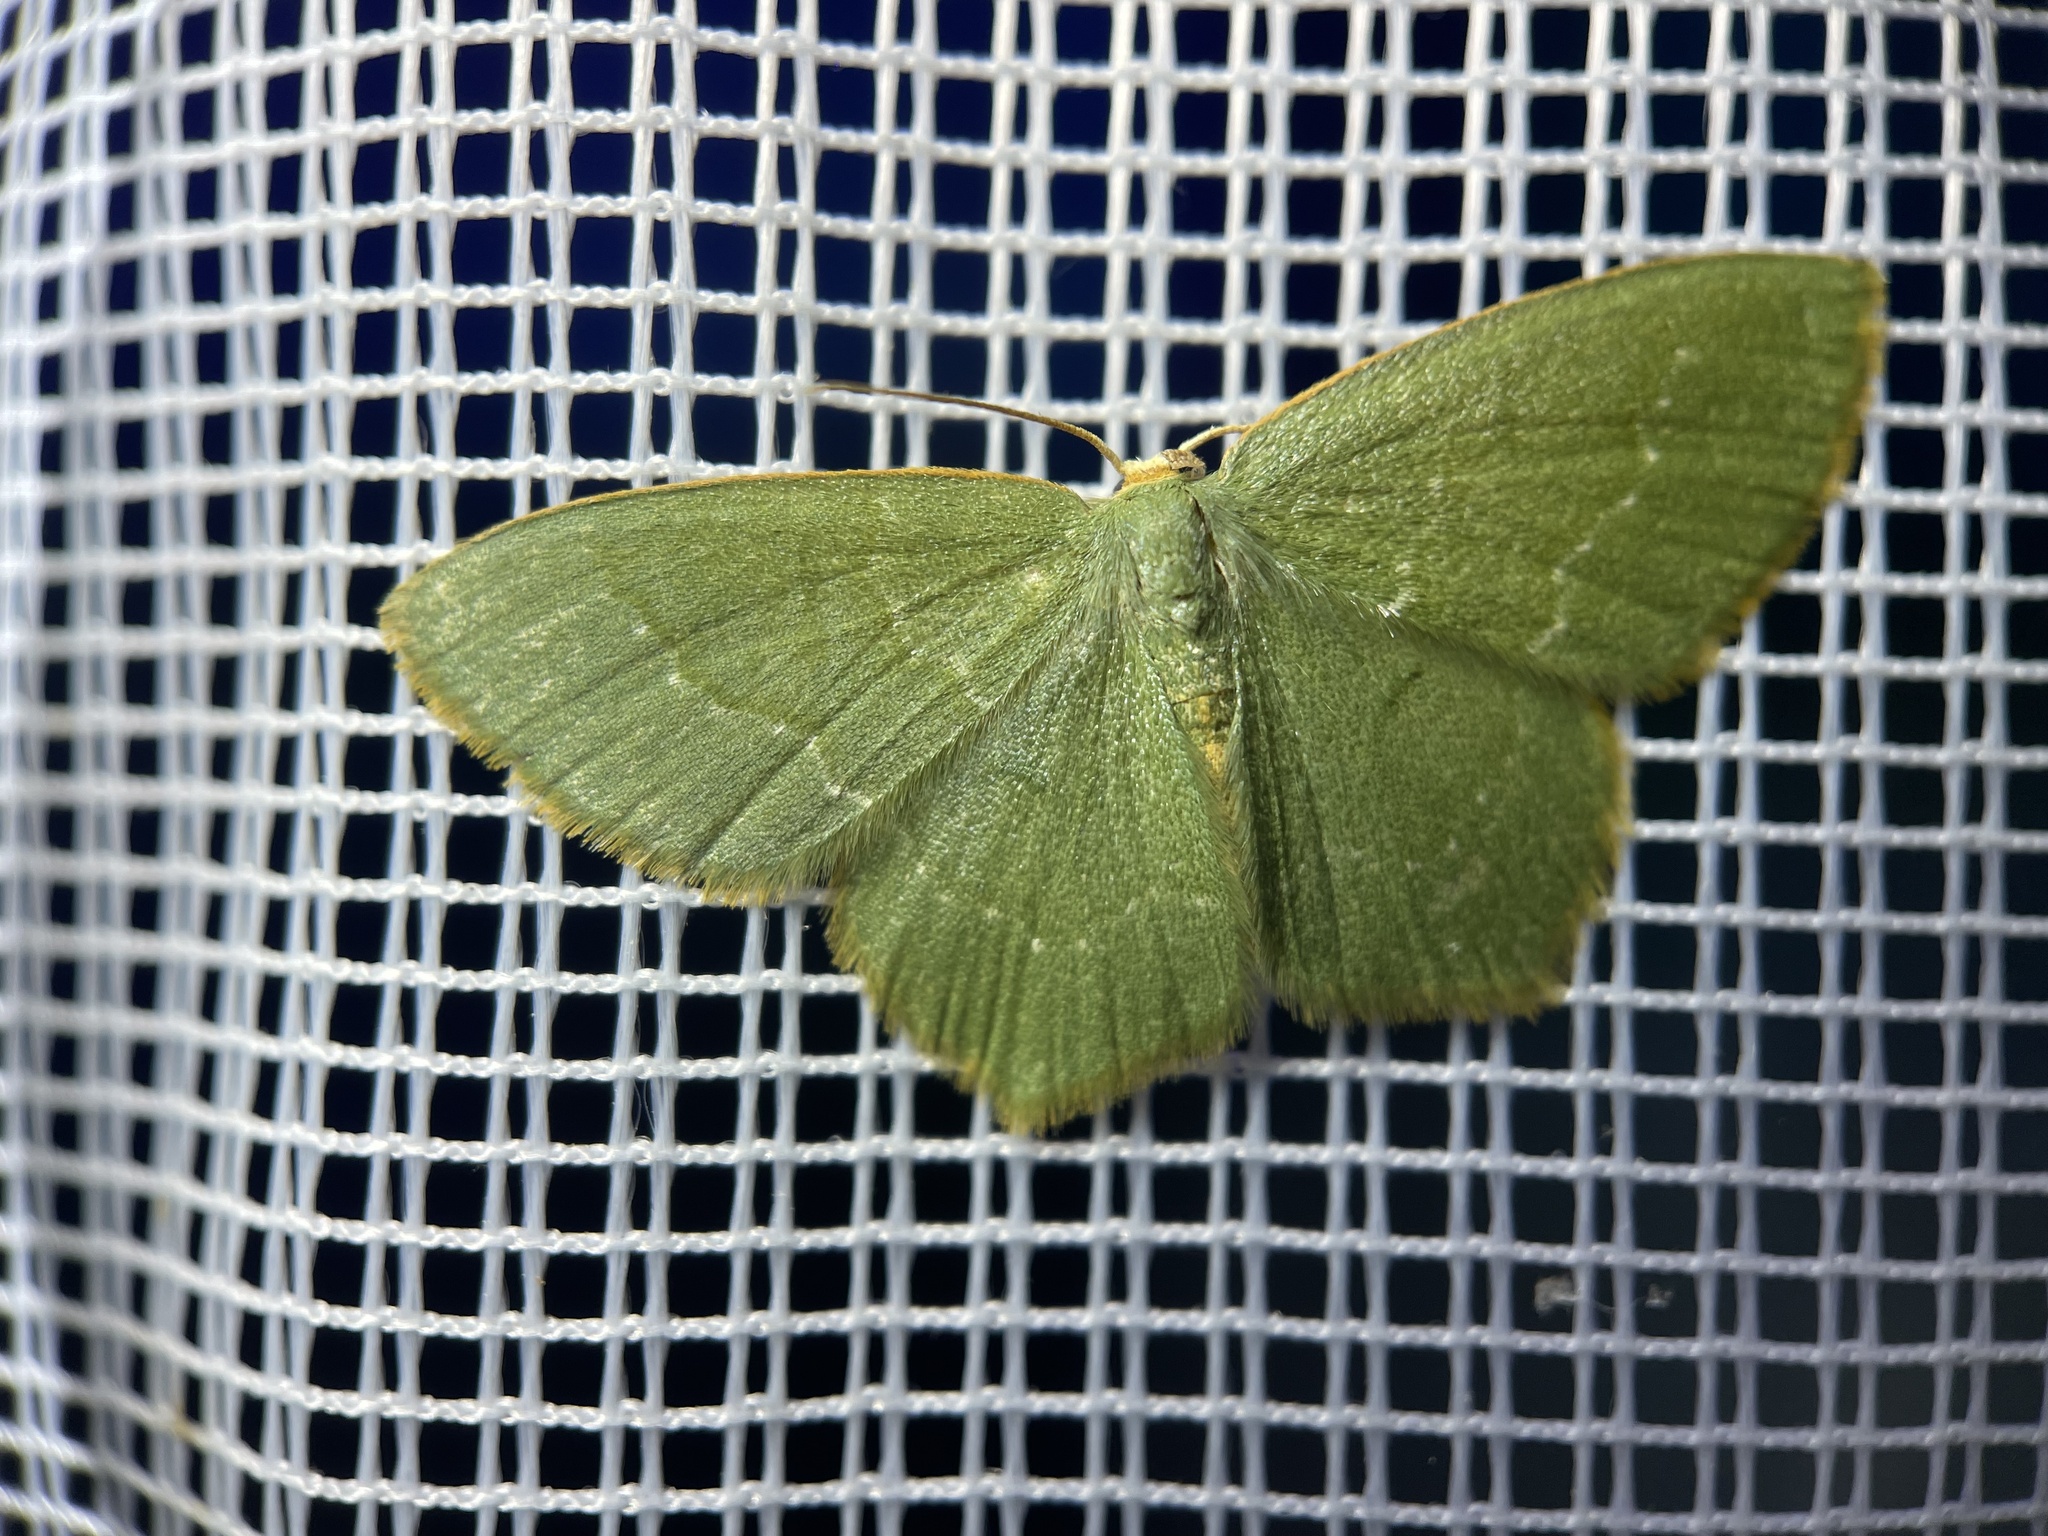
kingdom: Animalia
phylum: Arthropoda
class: Insecta
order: Lepidoptera
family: Geometridae
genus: Thalera
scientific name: Thalera pistasciaria
